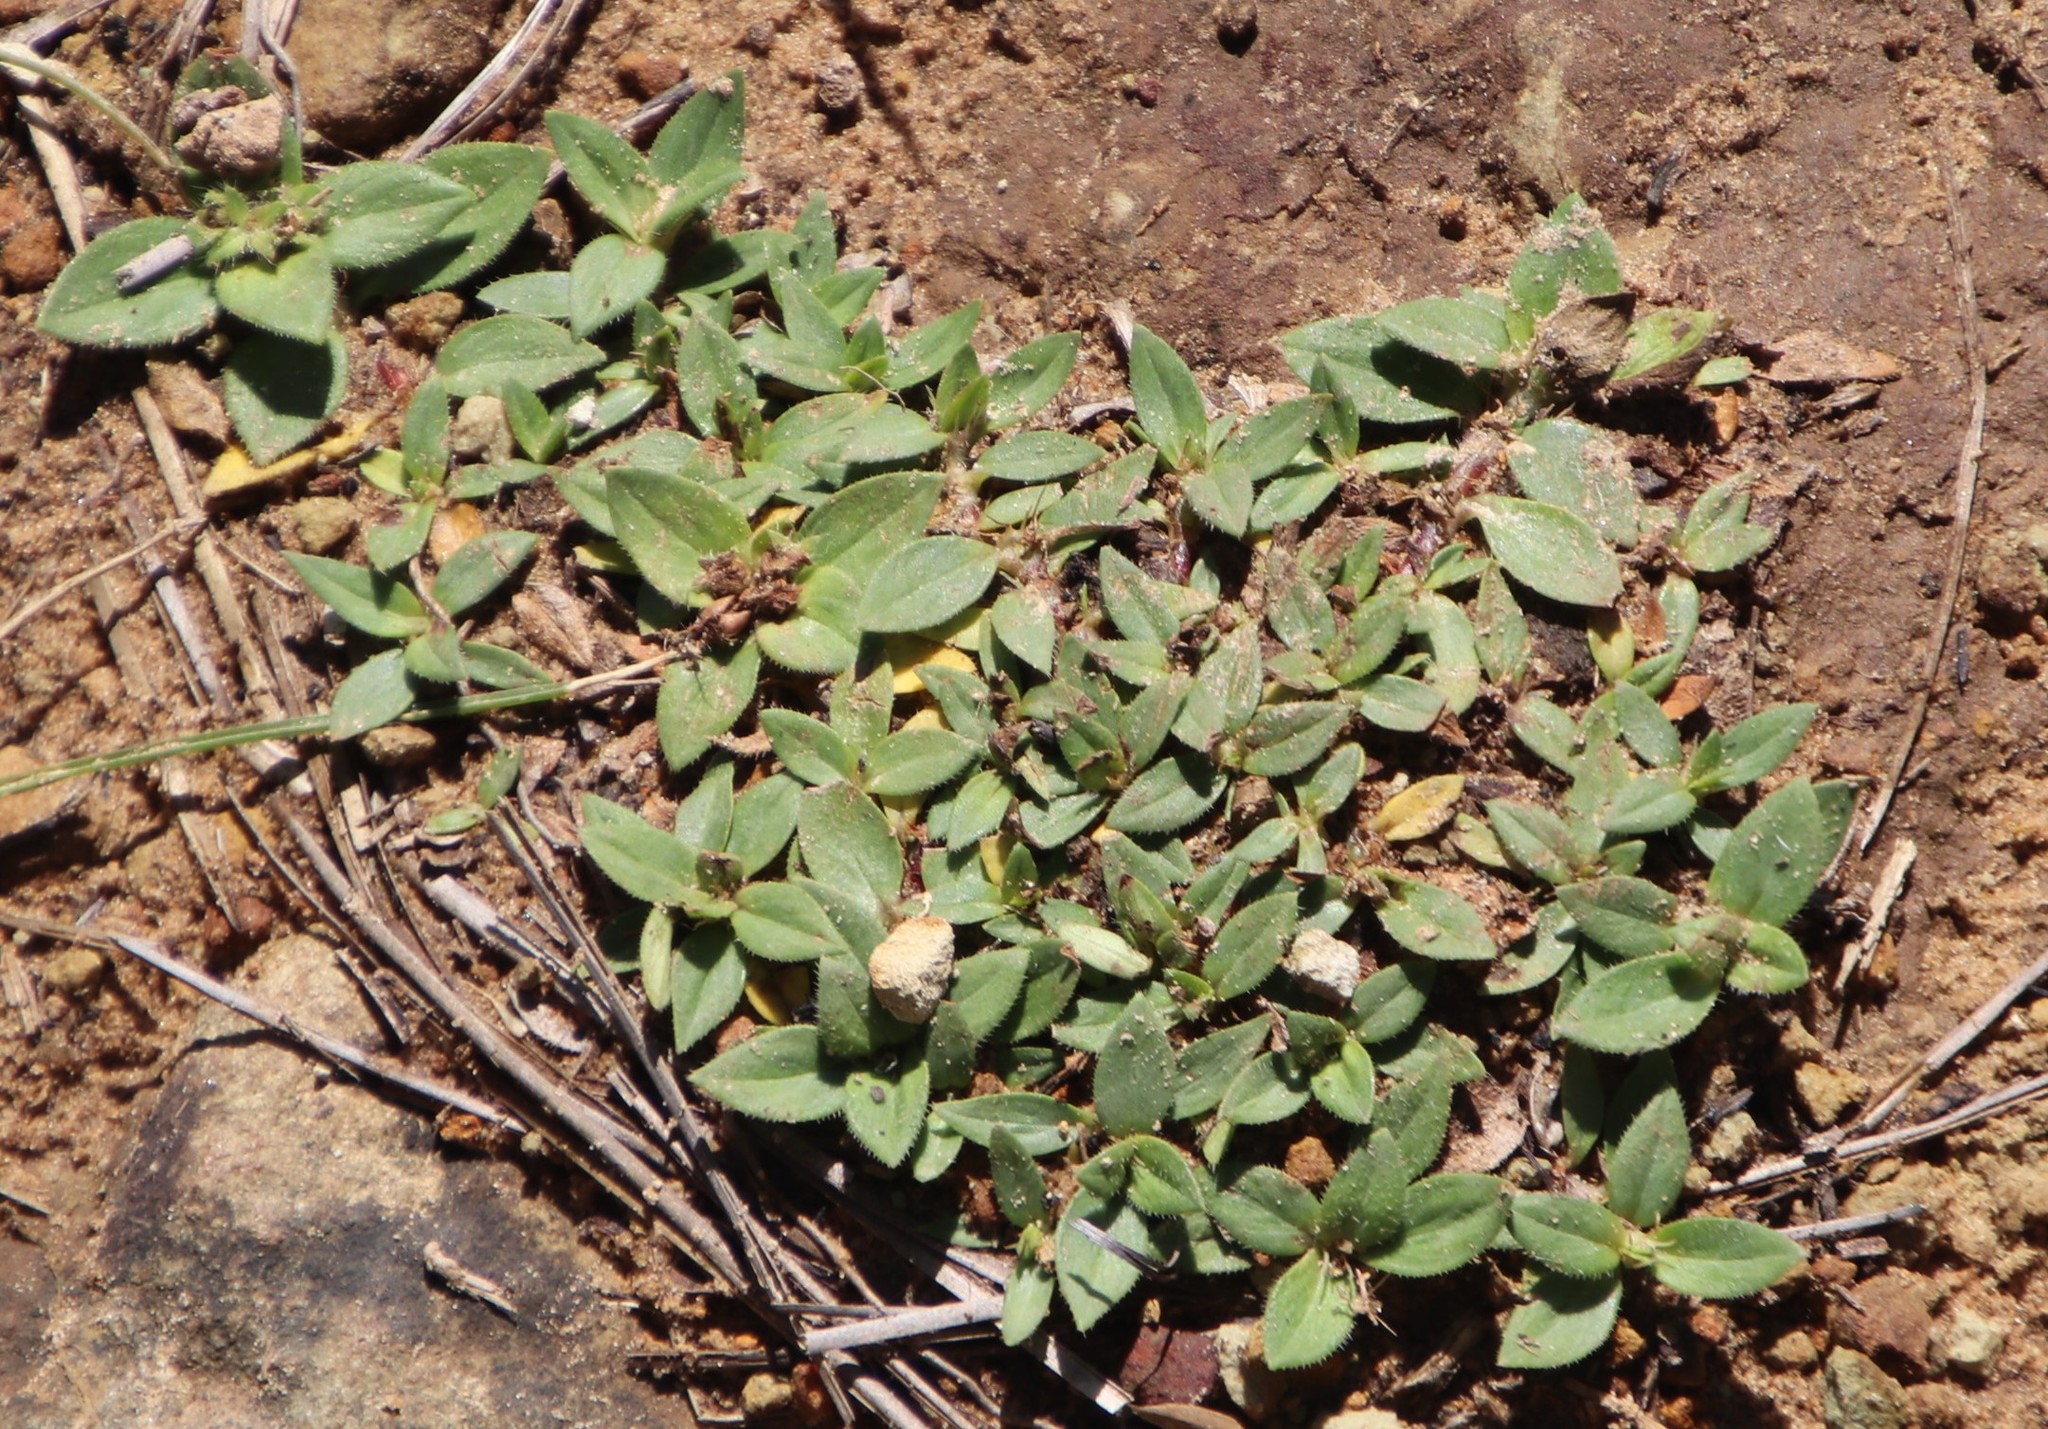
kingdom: Plantae
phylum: Tracheophyta
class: Magnoliopsida
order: Gentianales
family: Rubiaceae
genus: Richardia
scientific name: Richardia brasiliensis
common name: Tropical mexican clover
